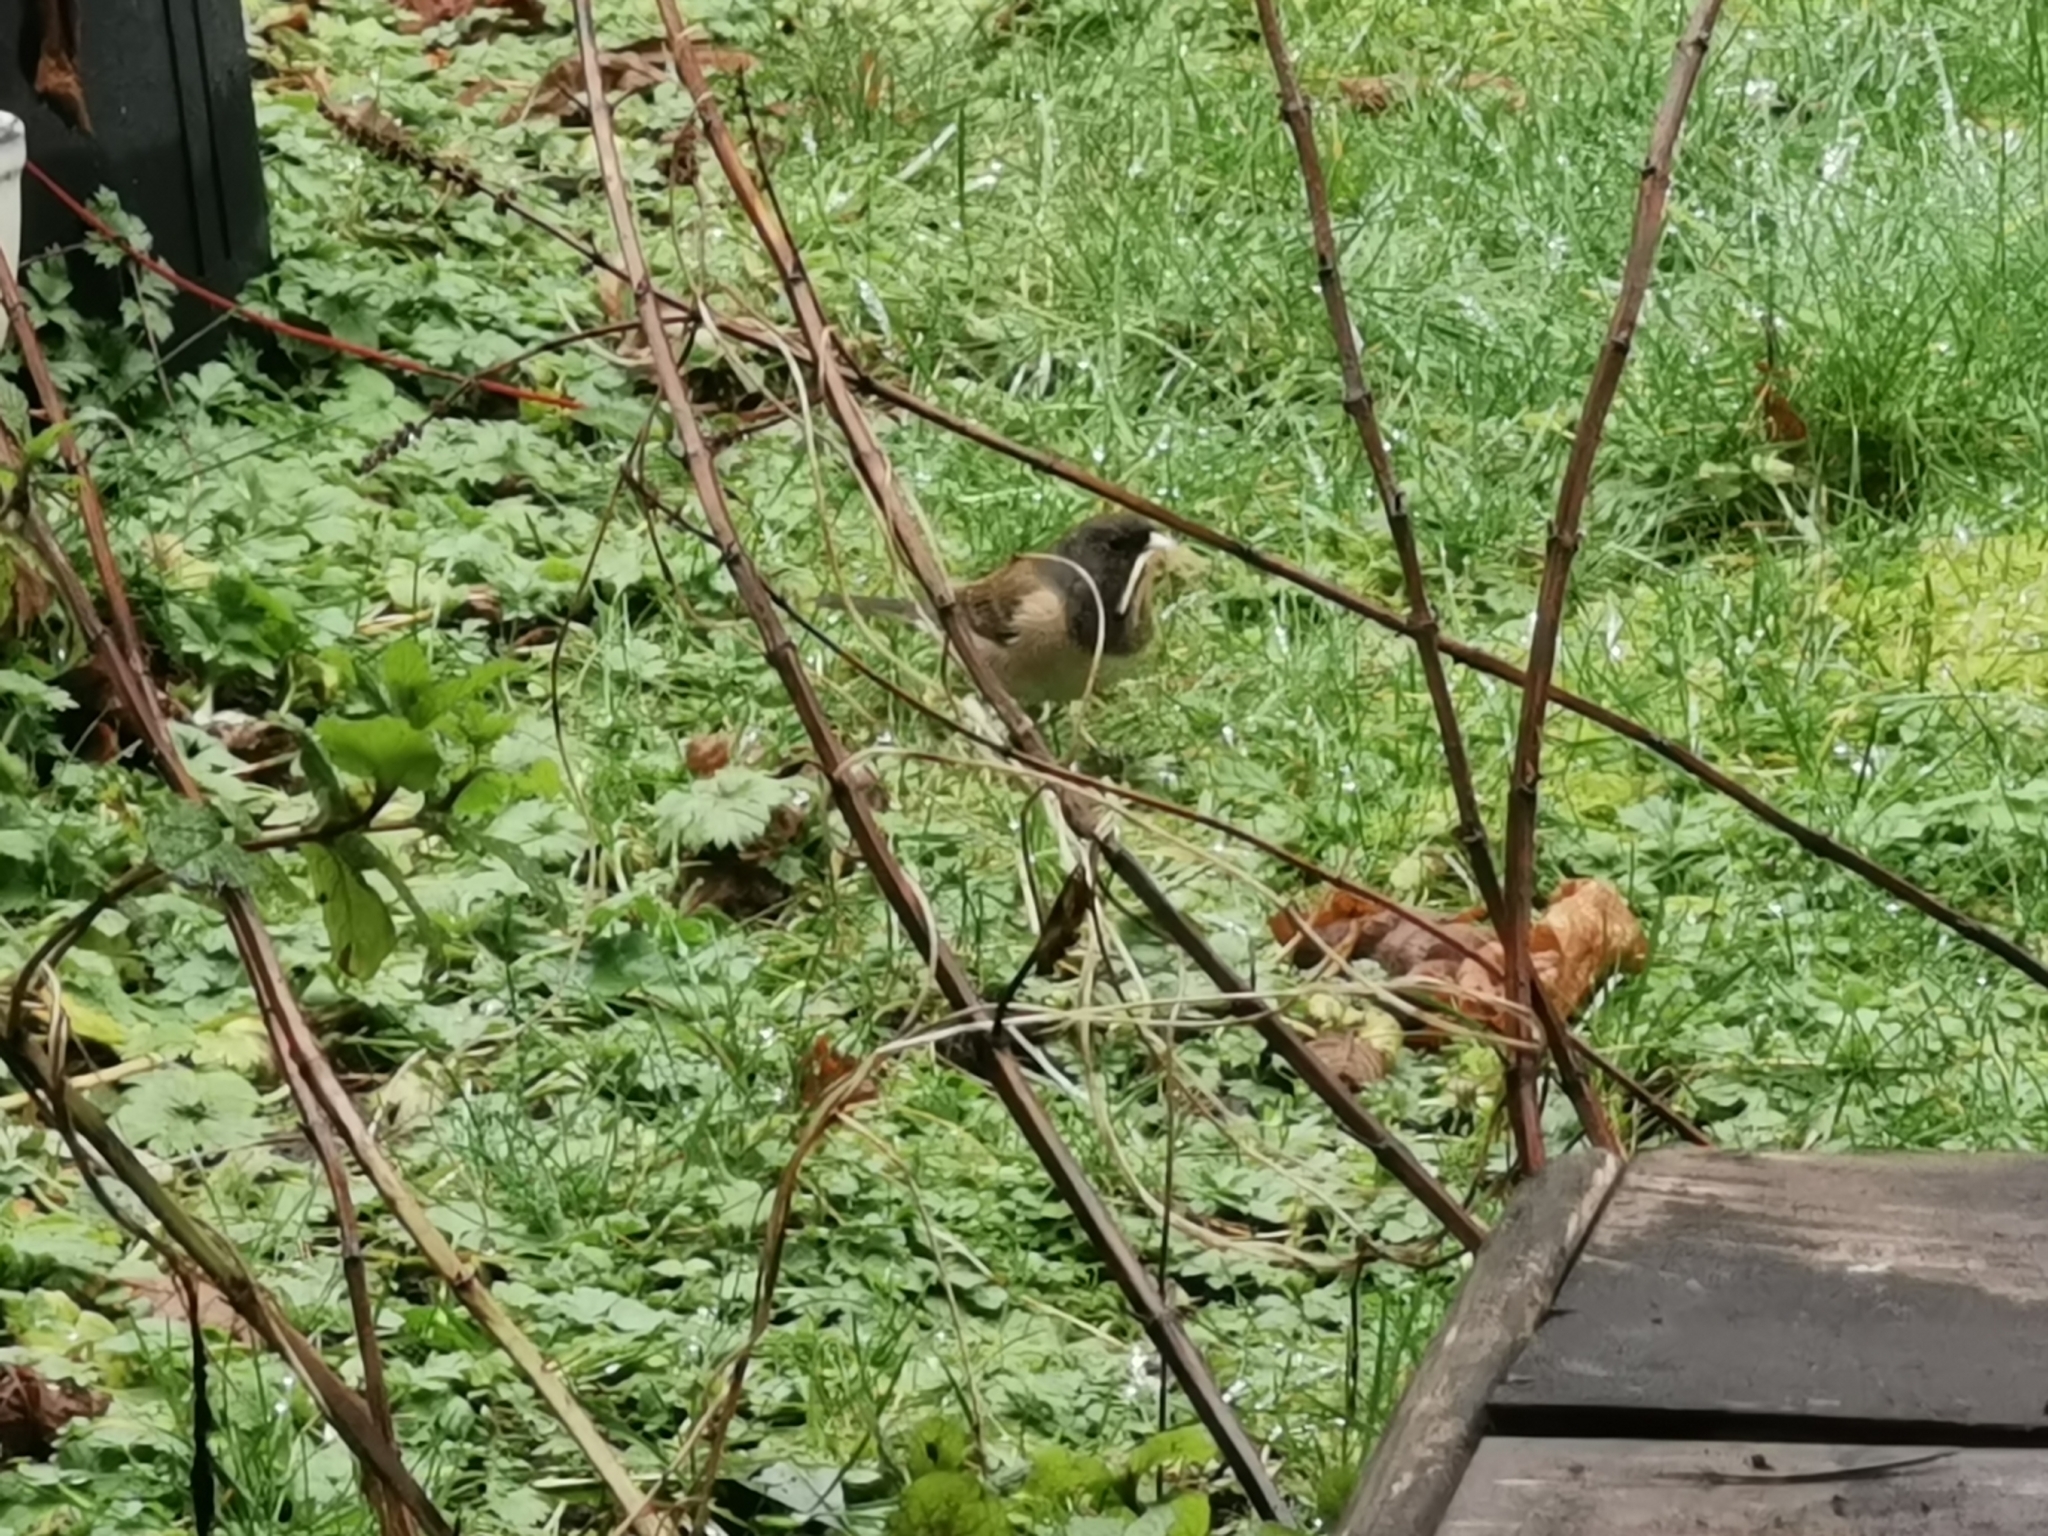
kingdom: Animalia
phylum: Chordata
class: Aves
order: Passeriformes
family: Passerellidae
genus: Junco
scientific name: Junco hyemalis
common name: Dark-eyed junco
